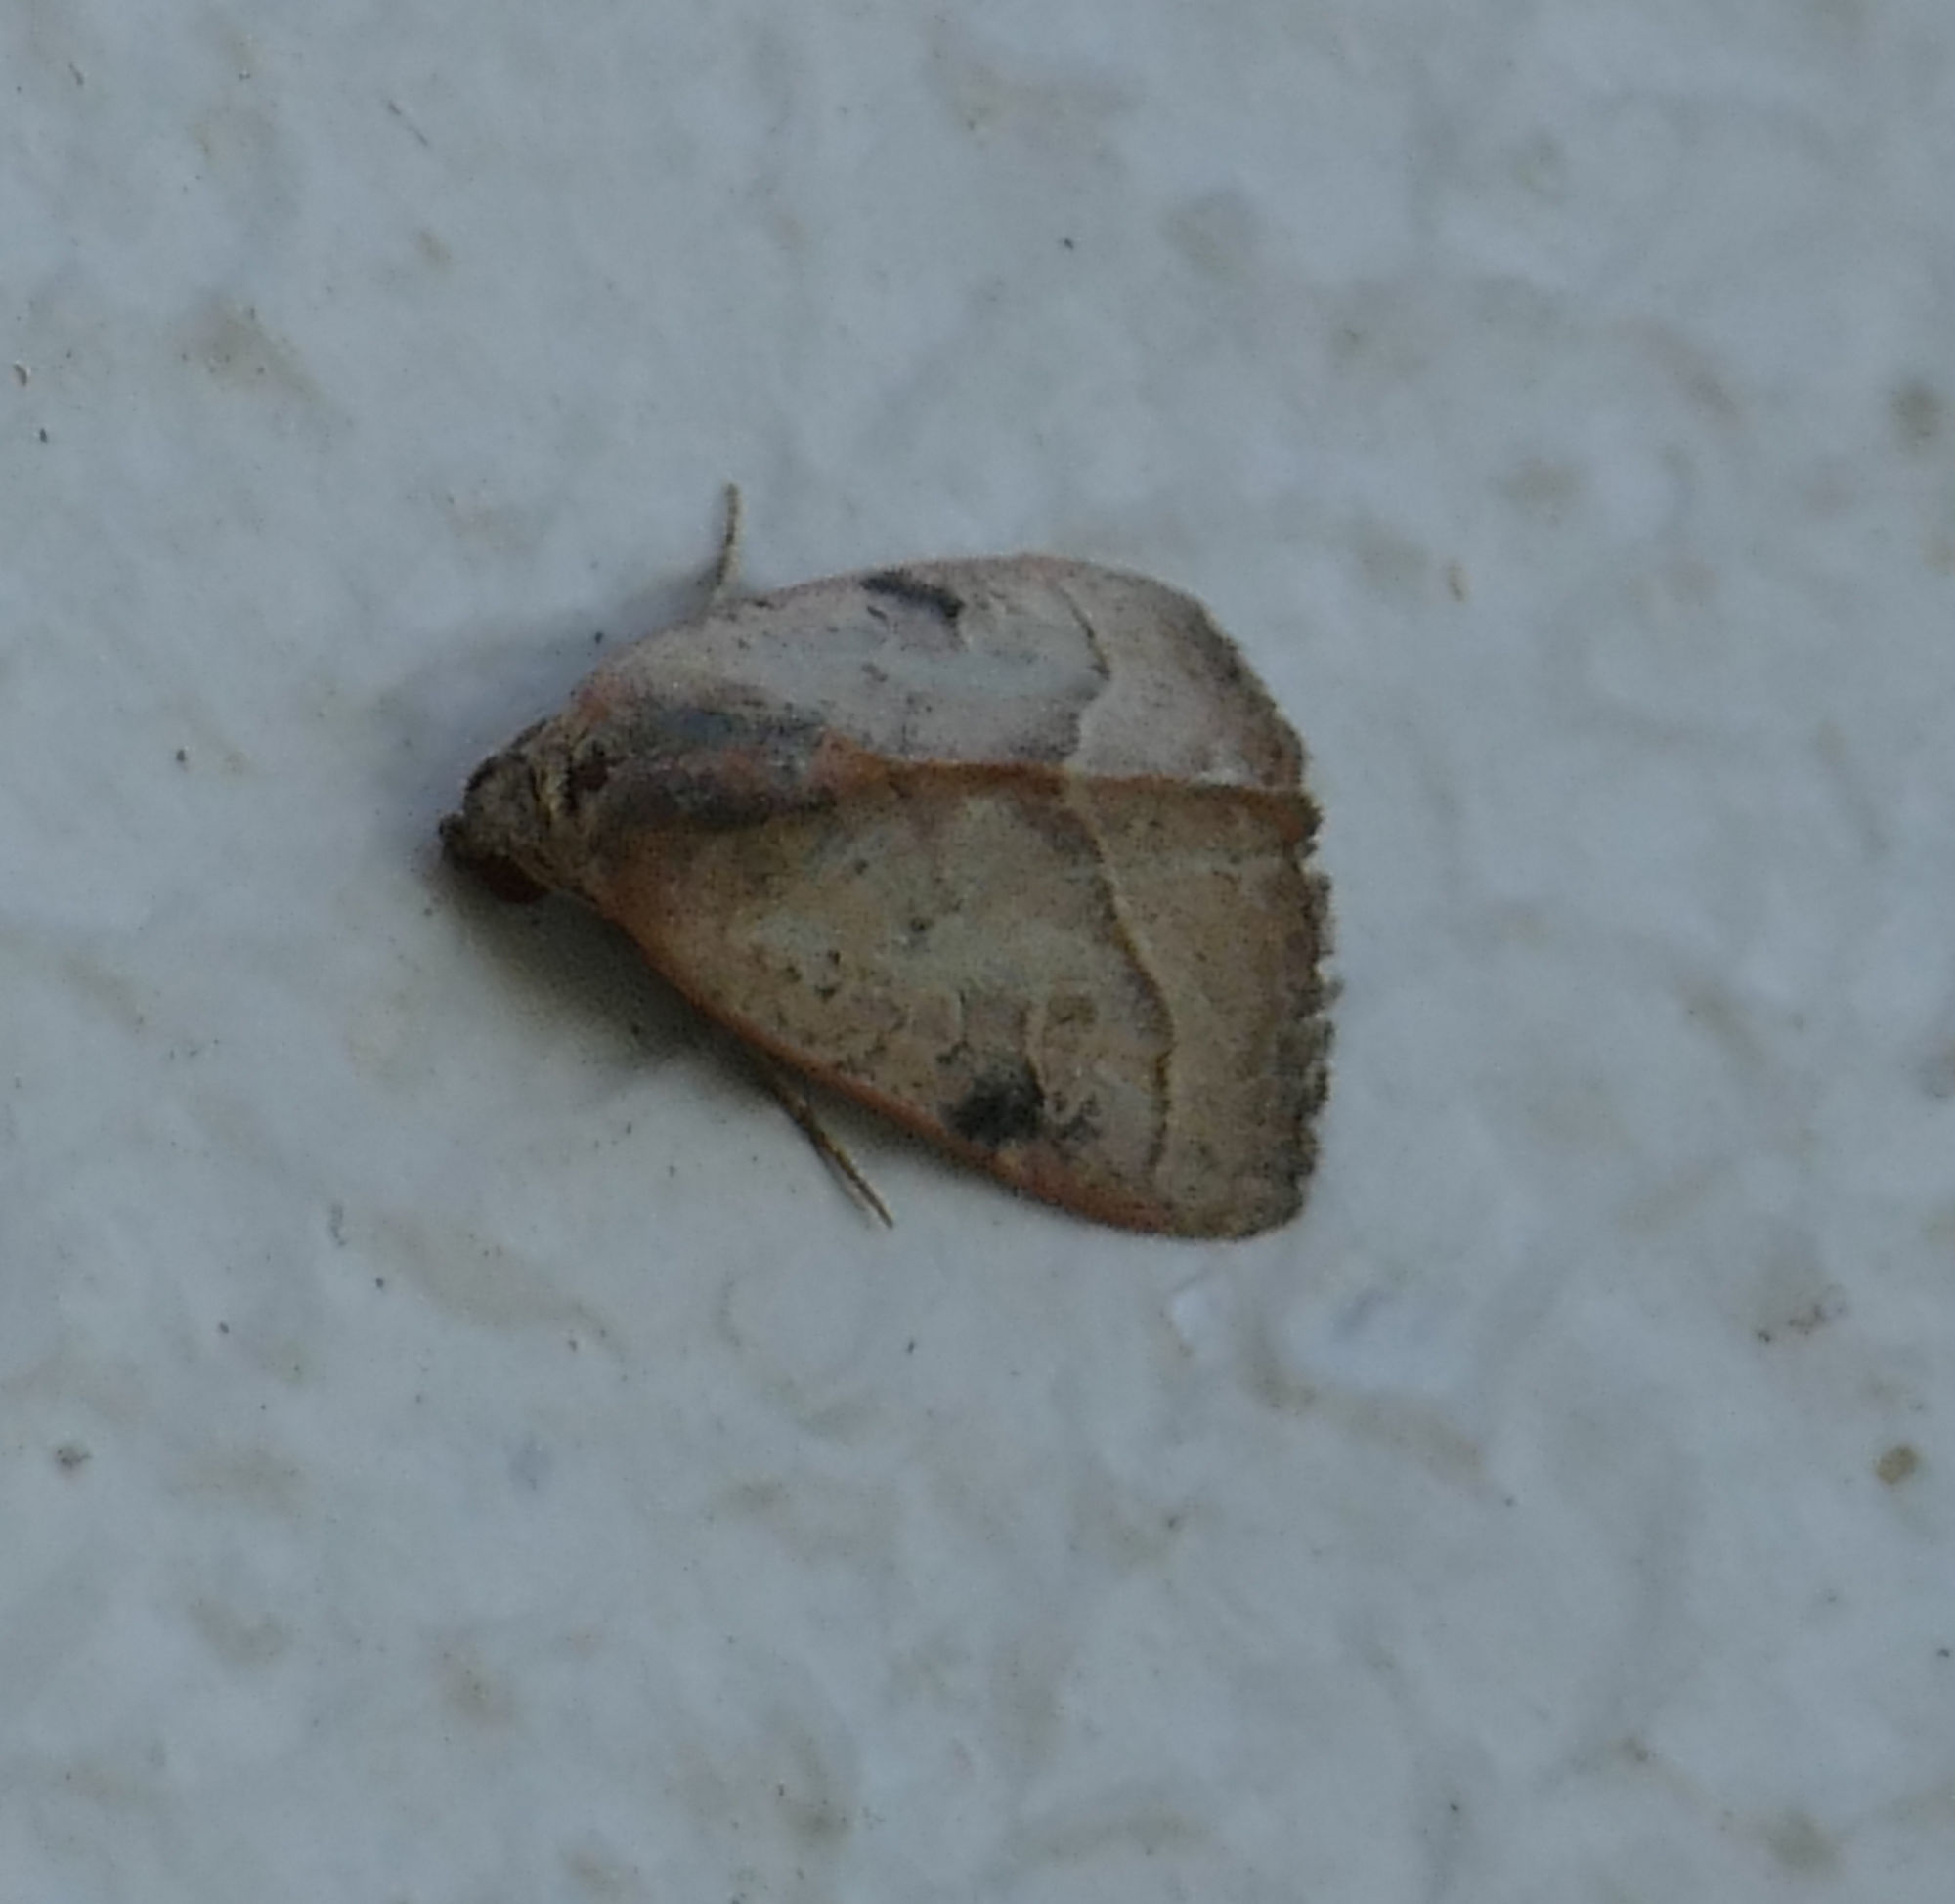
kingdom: Animalia
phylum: Arthropoda
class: Insecta
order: Lepidoptera
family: Noctuidae
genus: Galgula
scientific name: Galgula partita
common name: Wedgeling
